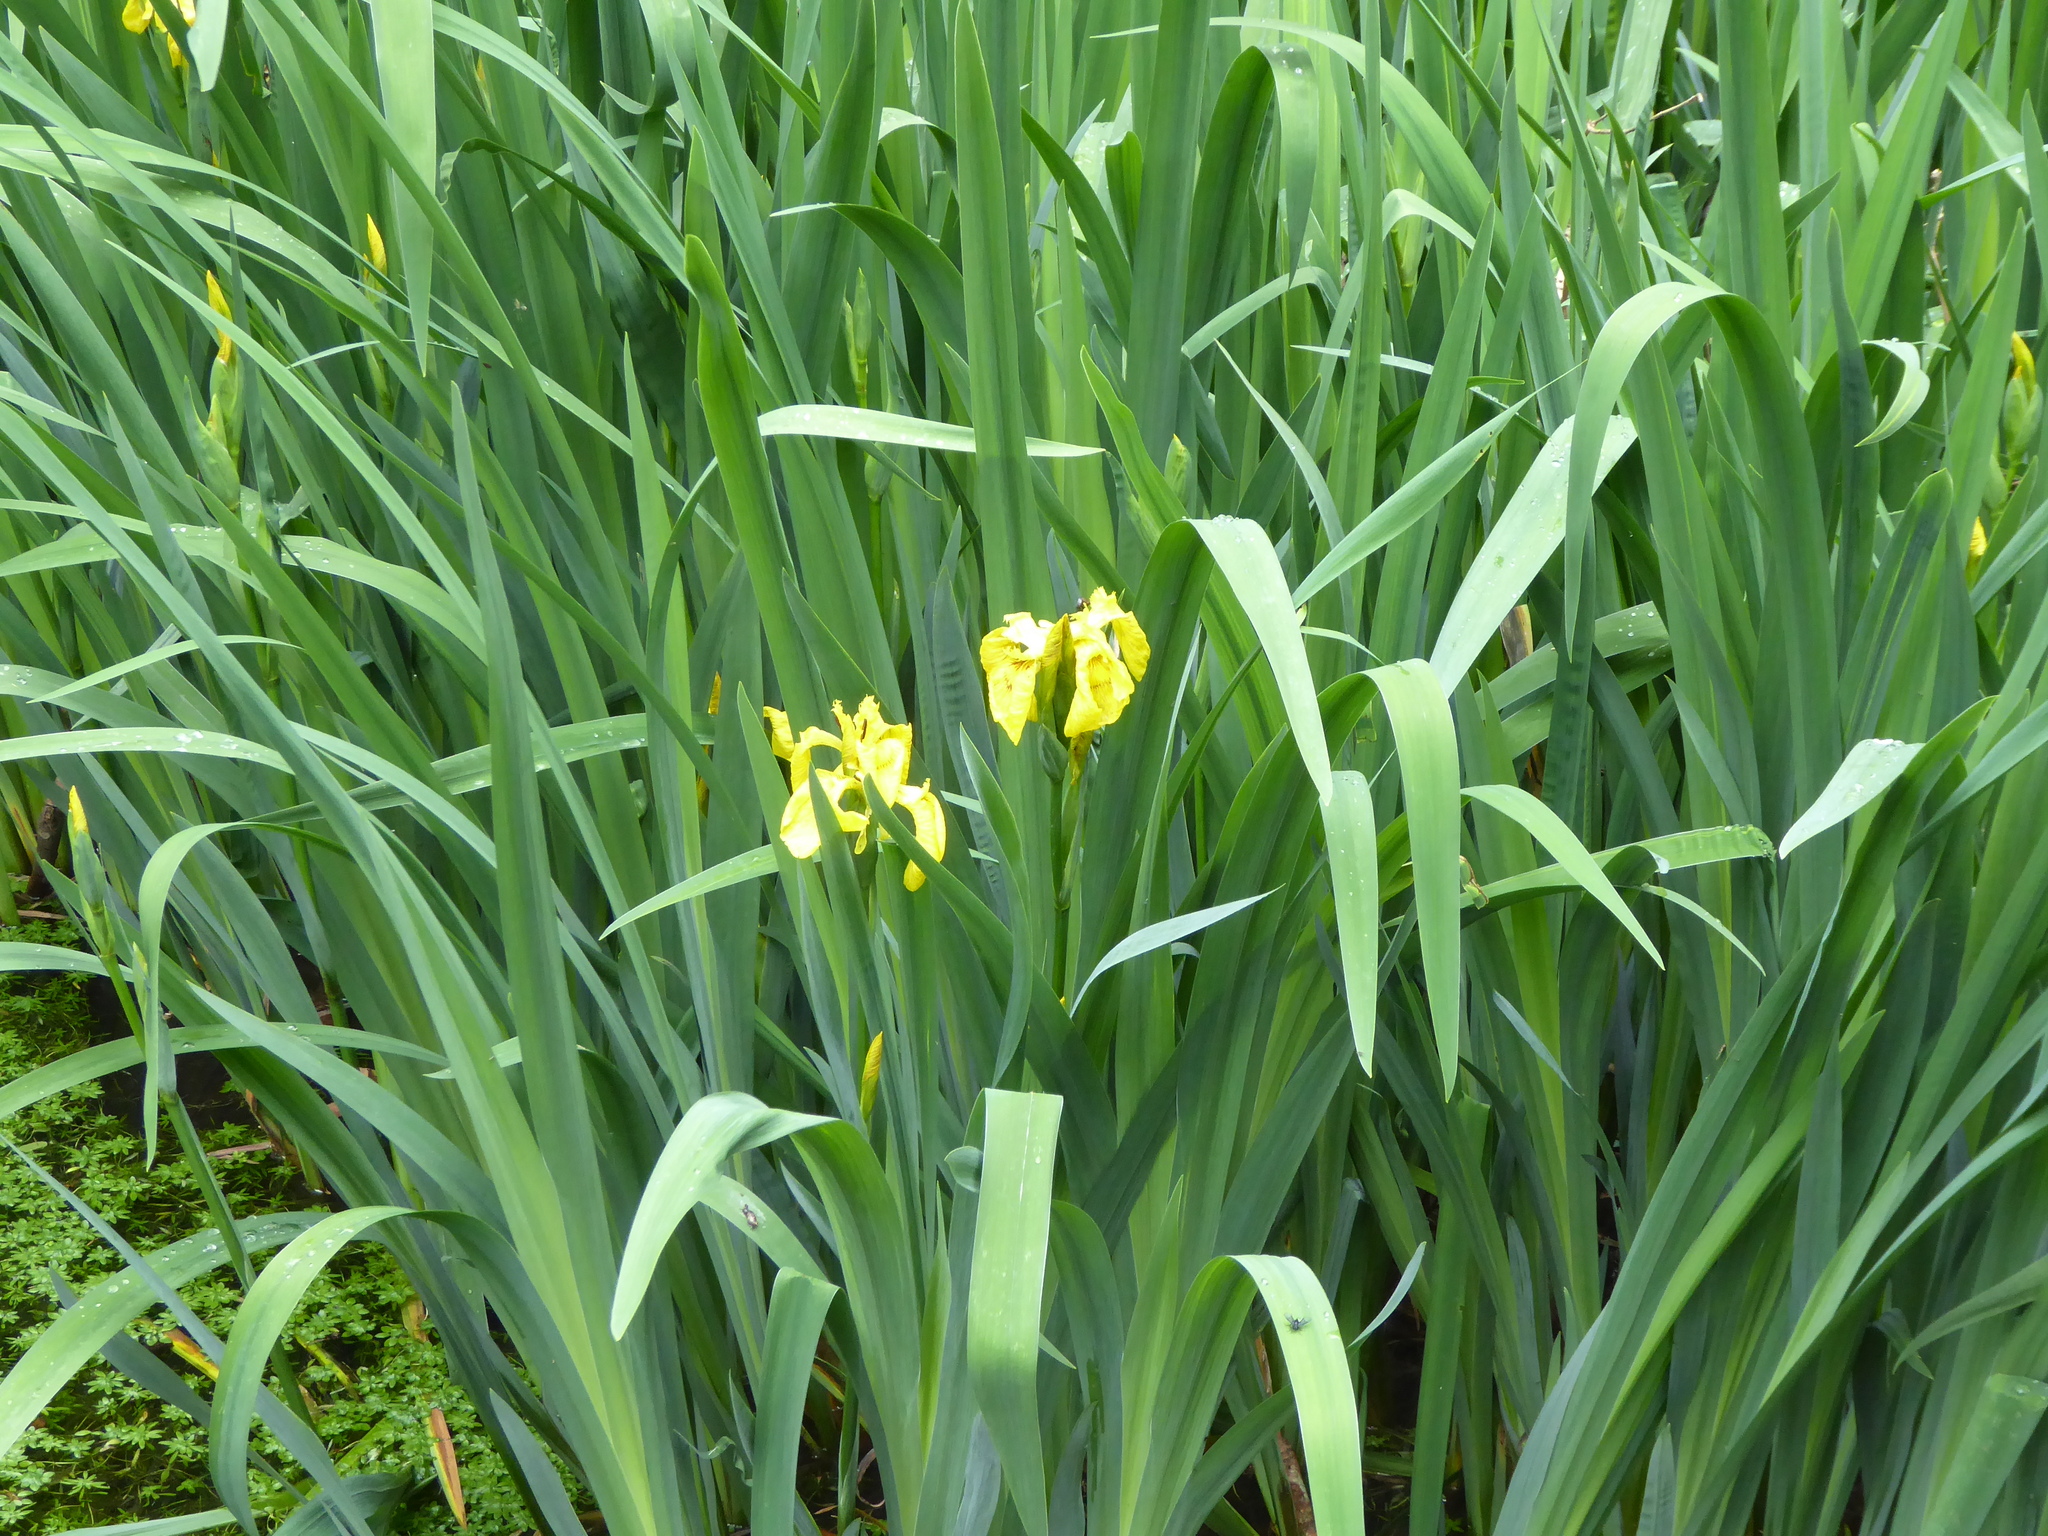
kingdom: Plantae
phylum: Tracheophyta
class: Liliopsida
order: Asparagales
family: Iridaceae
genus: Iris
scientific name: Iris pseudacorus
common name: Yellow flag
